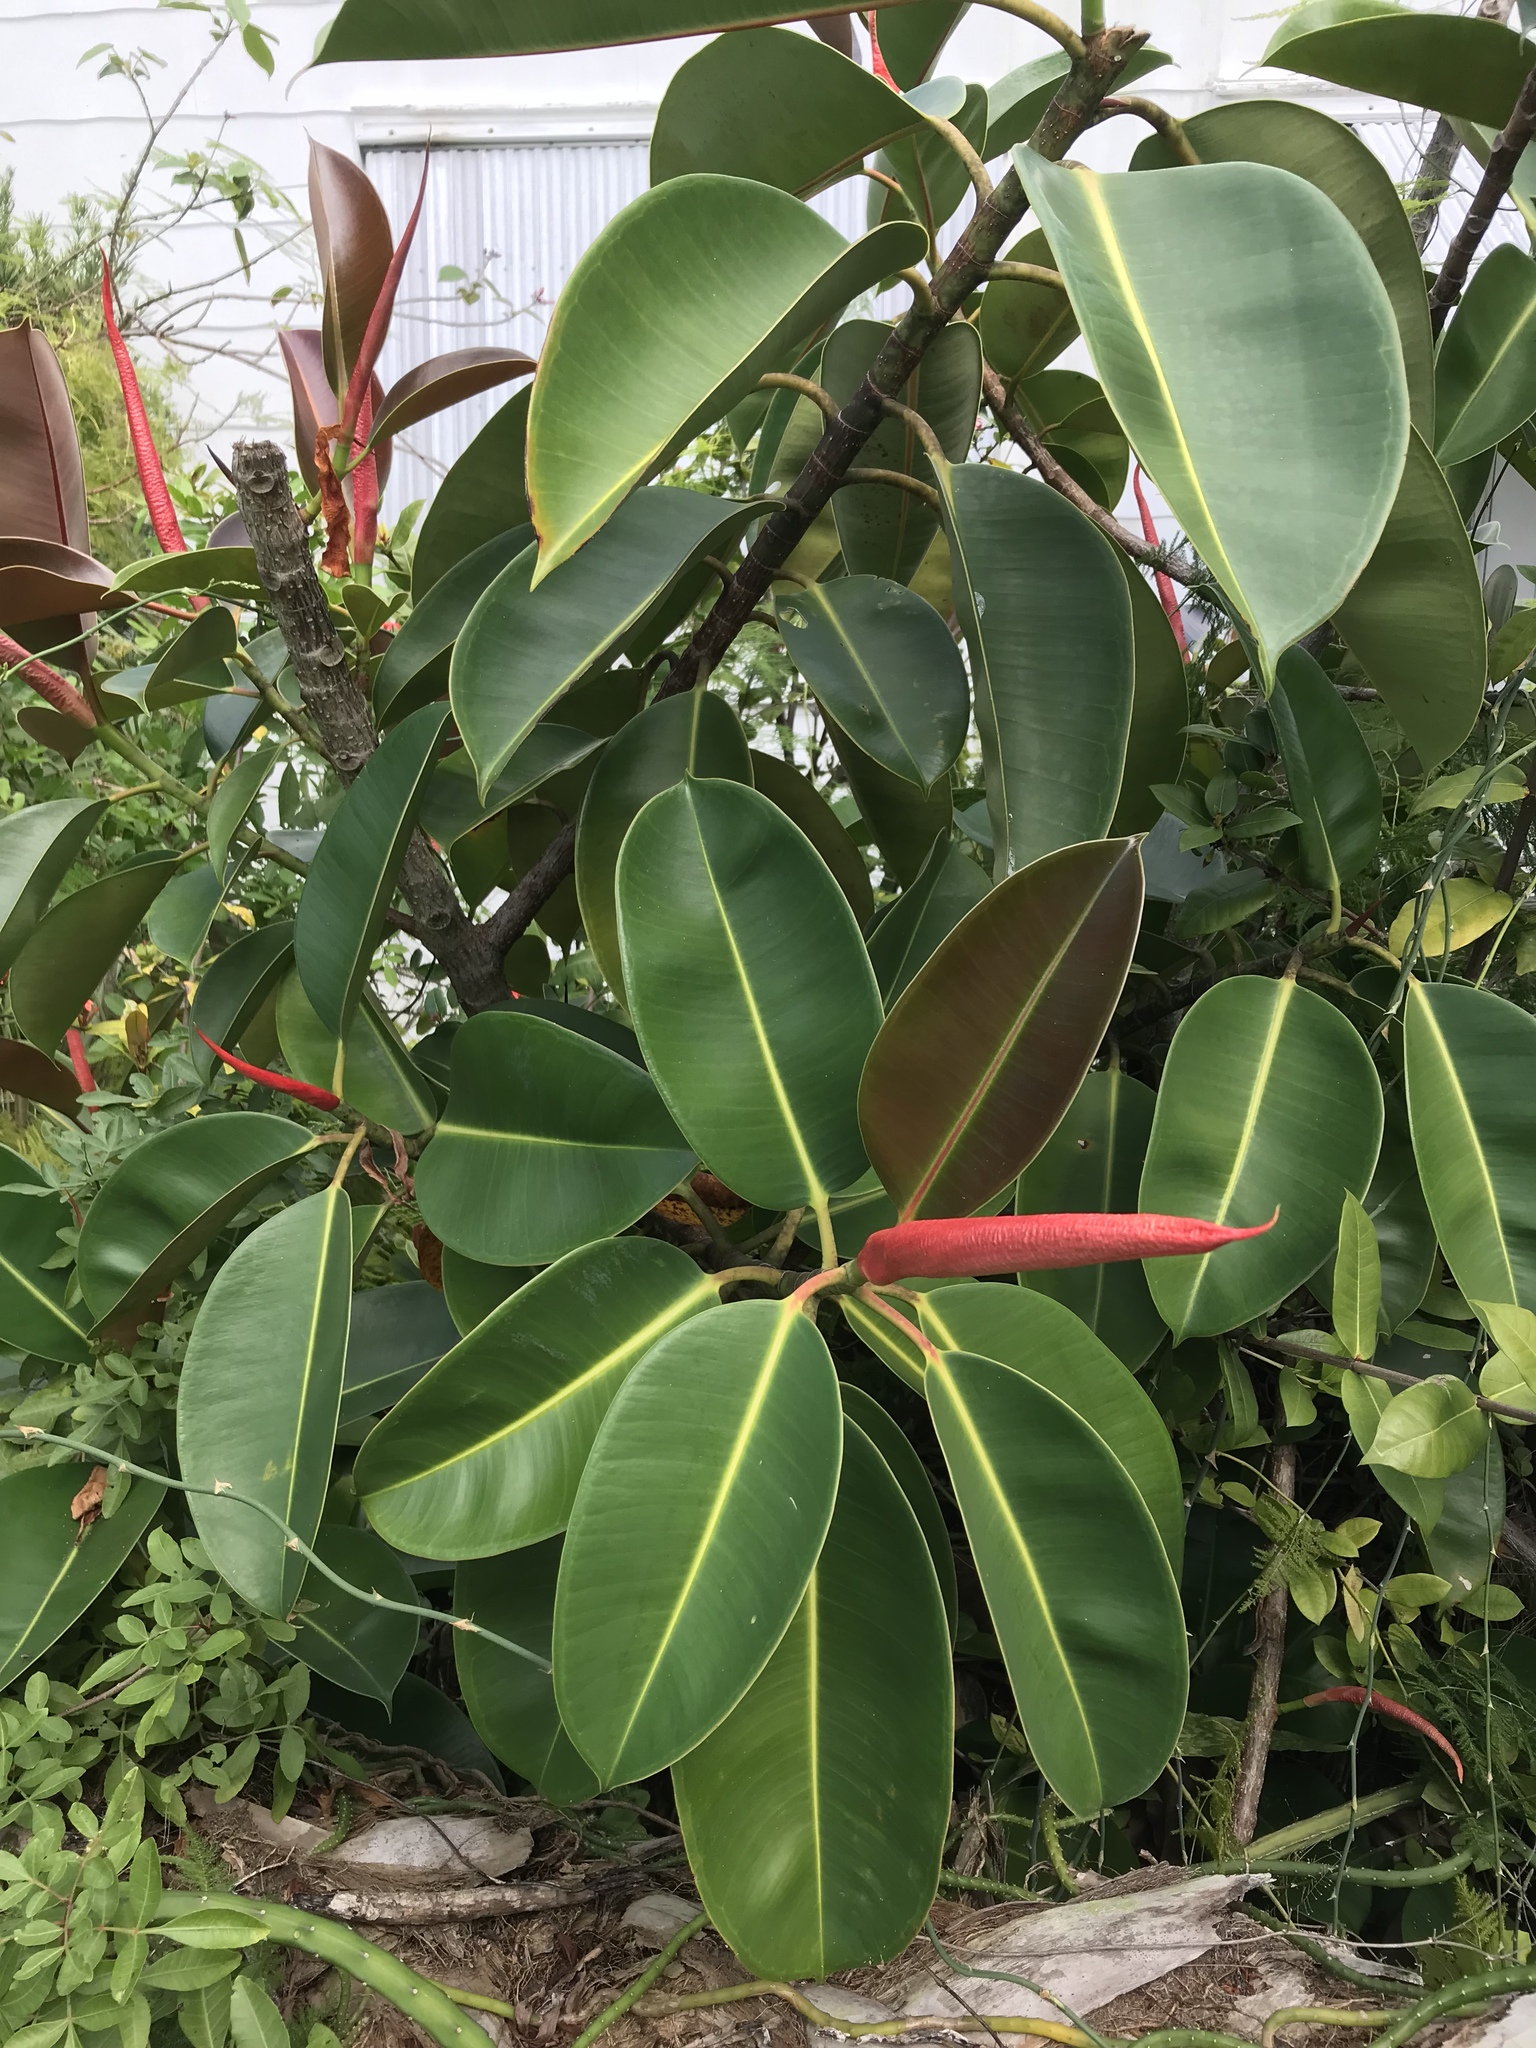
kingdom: Plantae
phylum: Tracheophyta
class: Magnoliopsida
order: Rosales
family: Moraceae
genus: Ficus
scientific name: Ficus elastica
